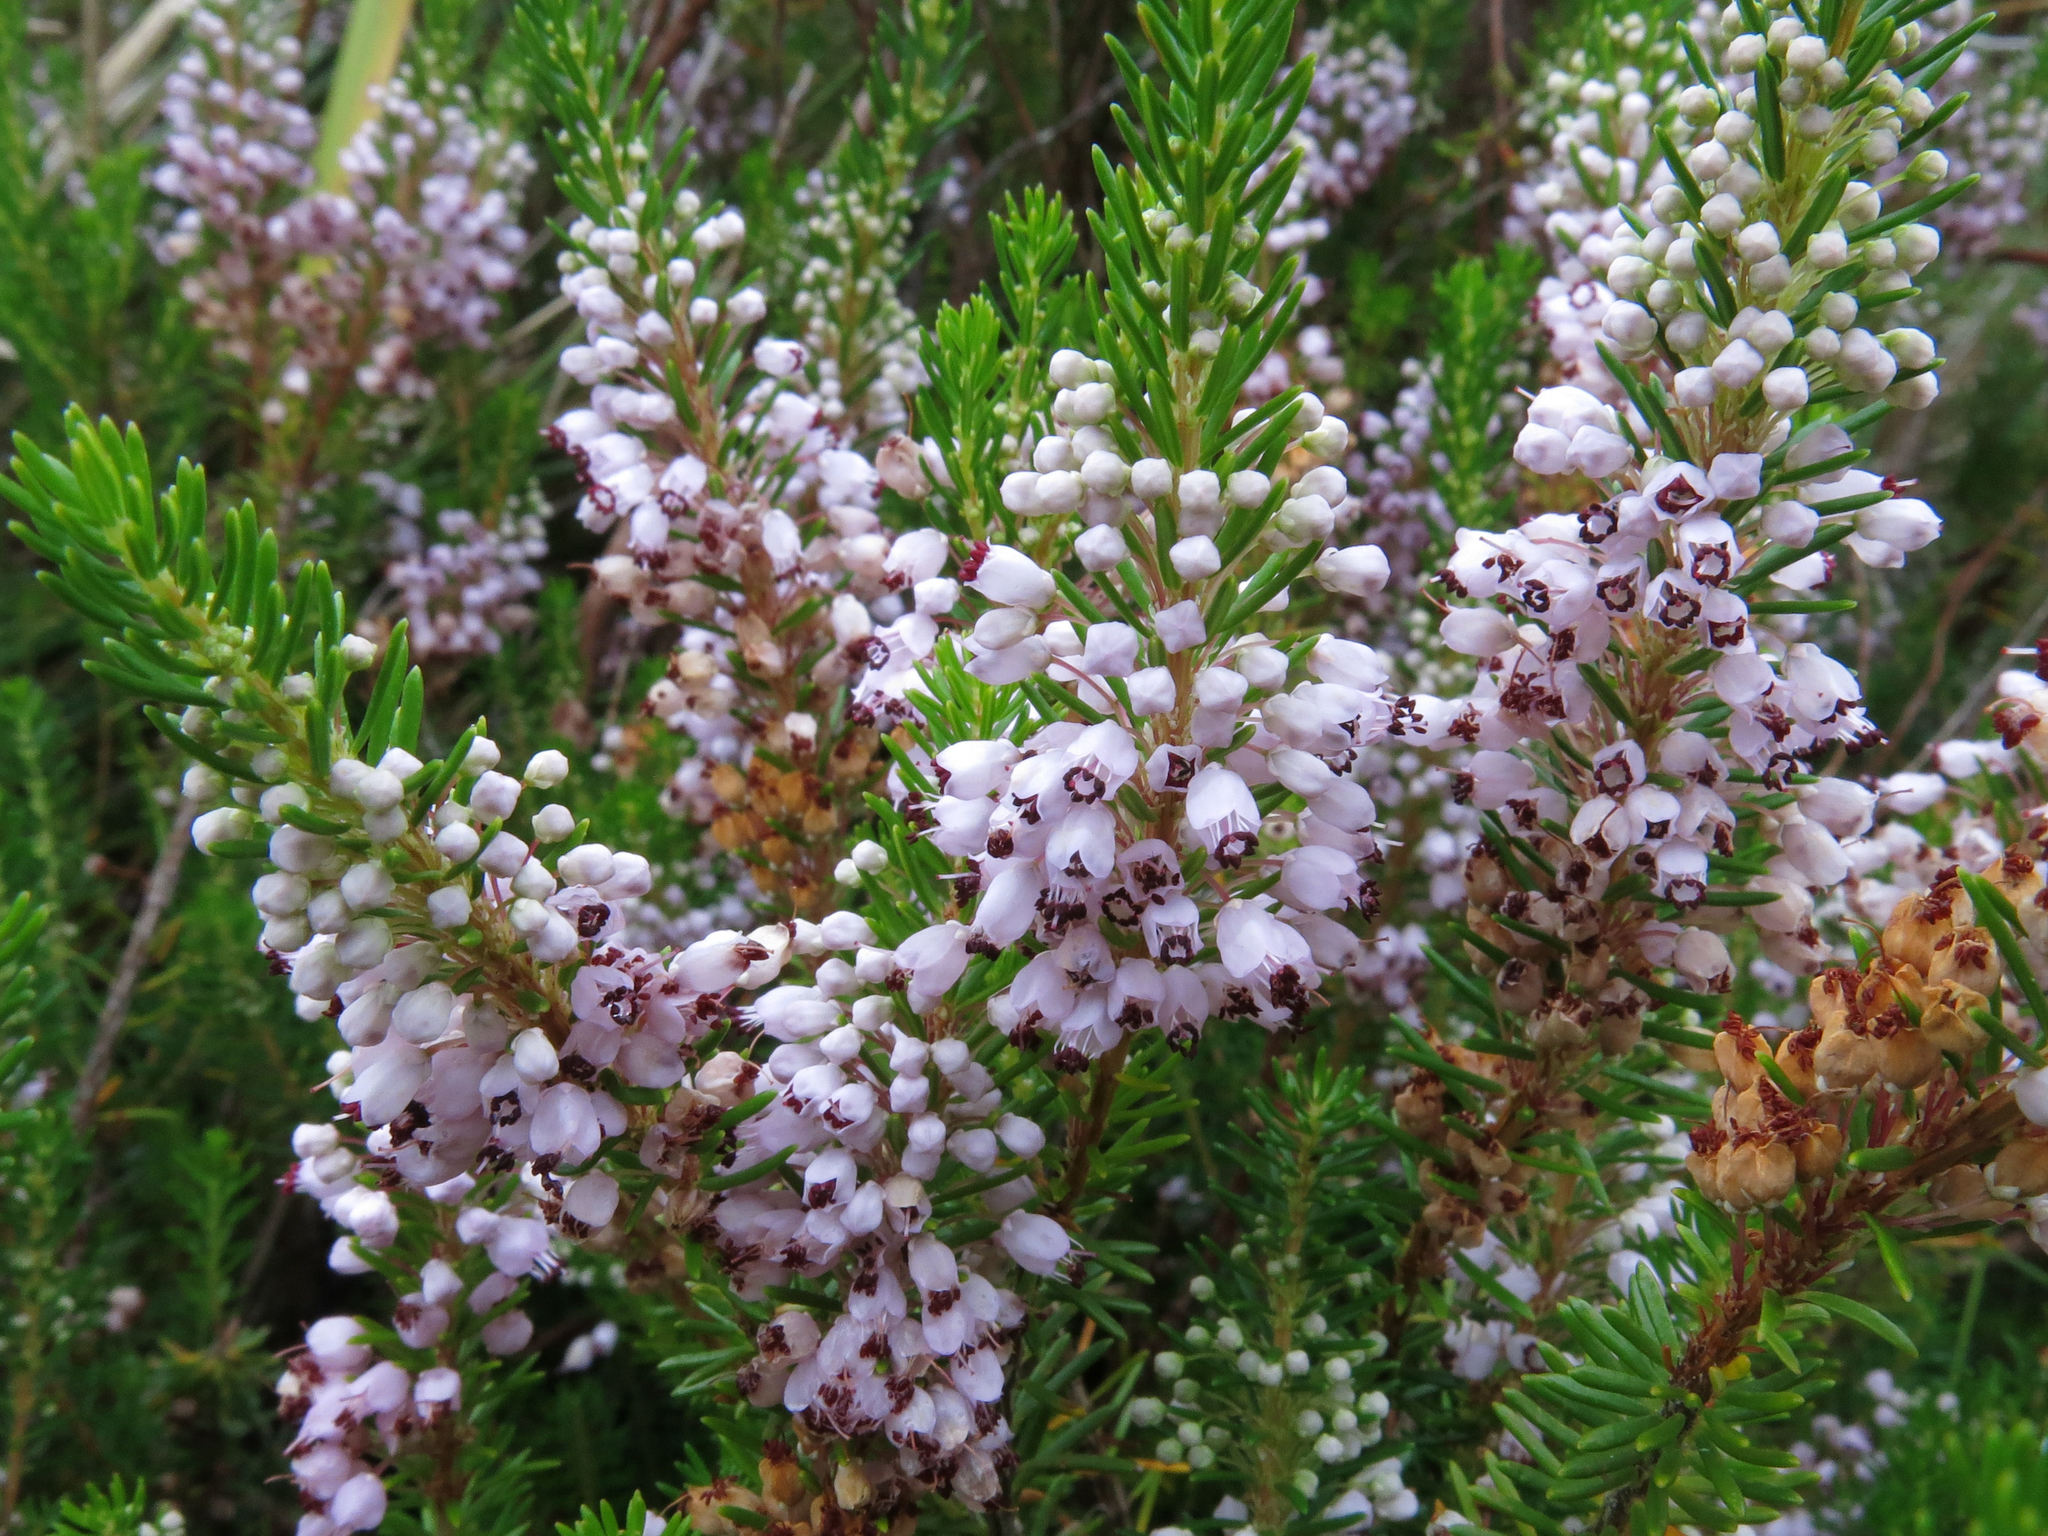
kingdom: Plantae
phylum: Tracheophyta
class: Magnoliopsida
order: Ericales
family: Ericaceae
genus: Erica
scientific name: Erica vagans
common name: Cornish heath
